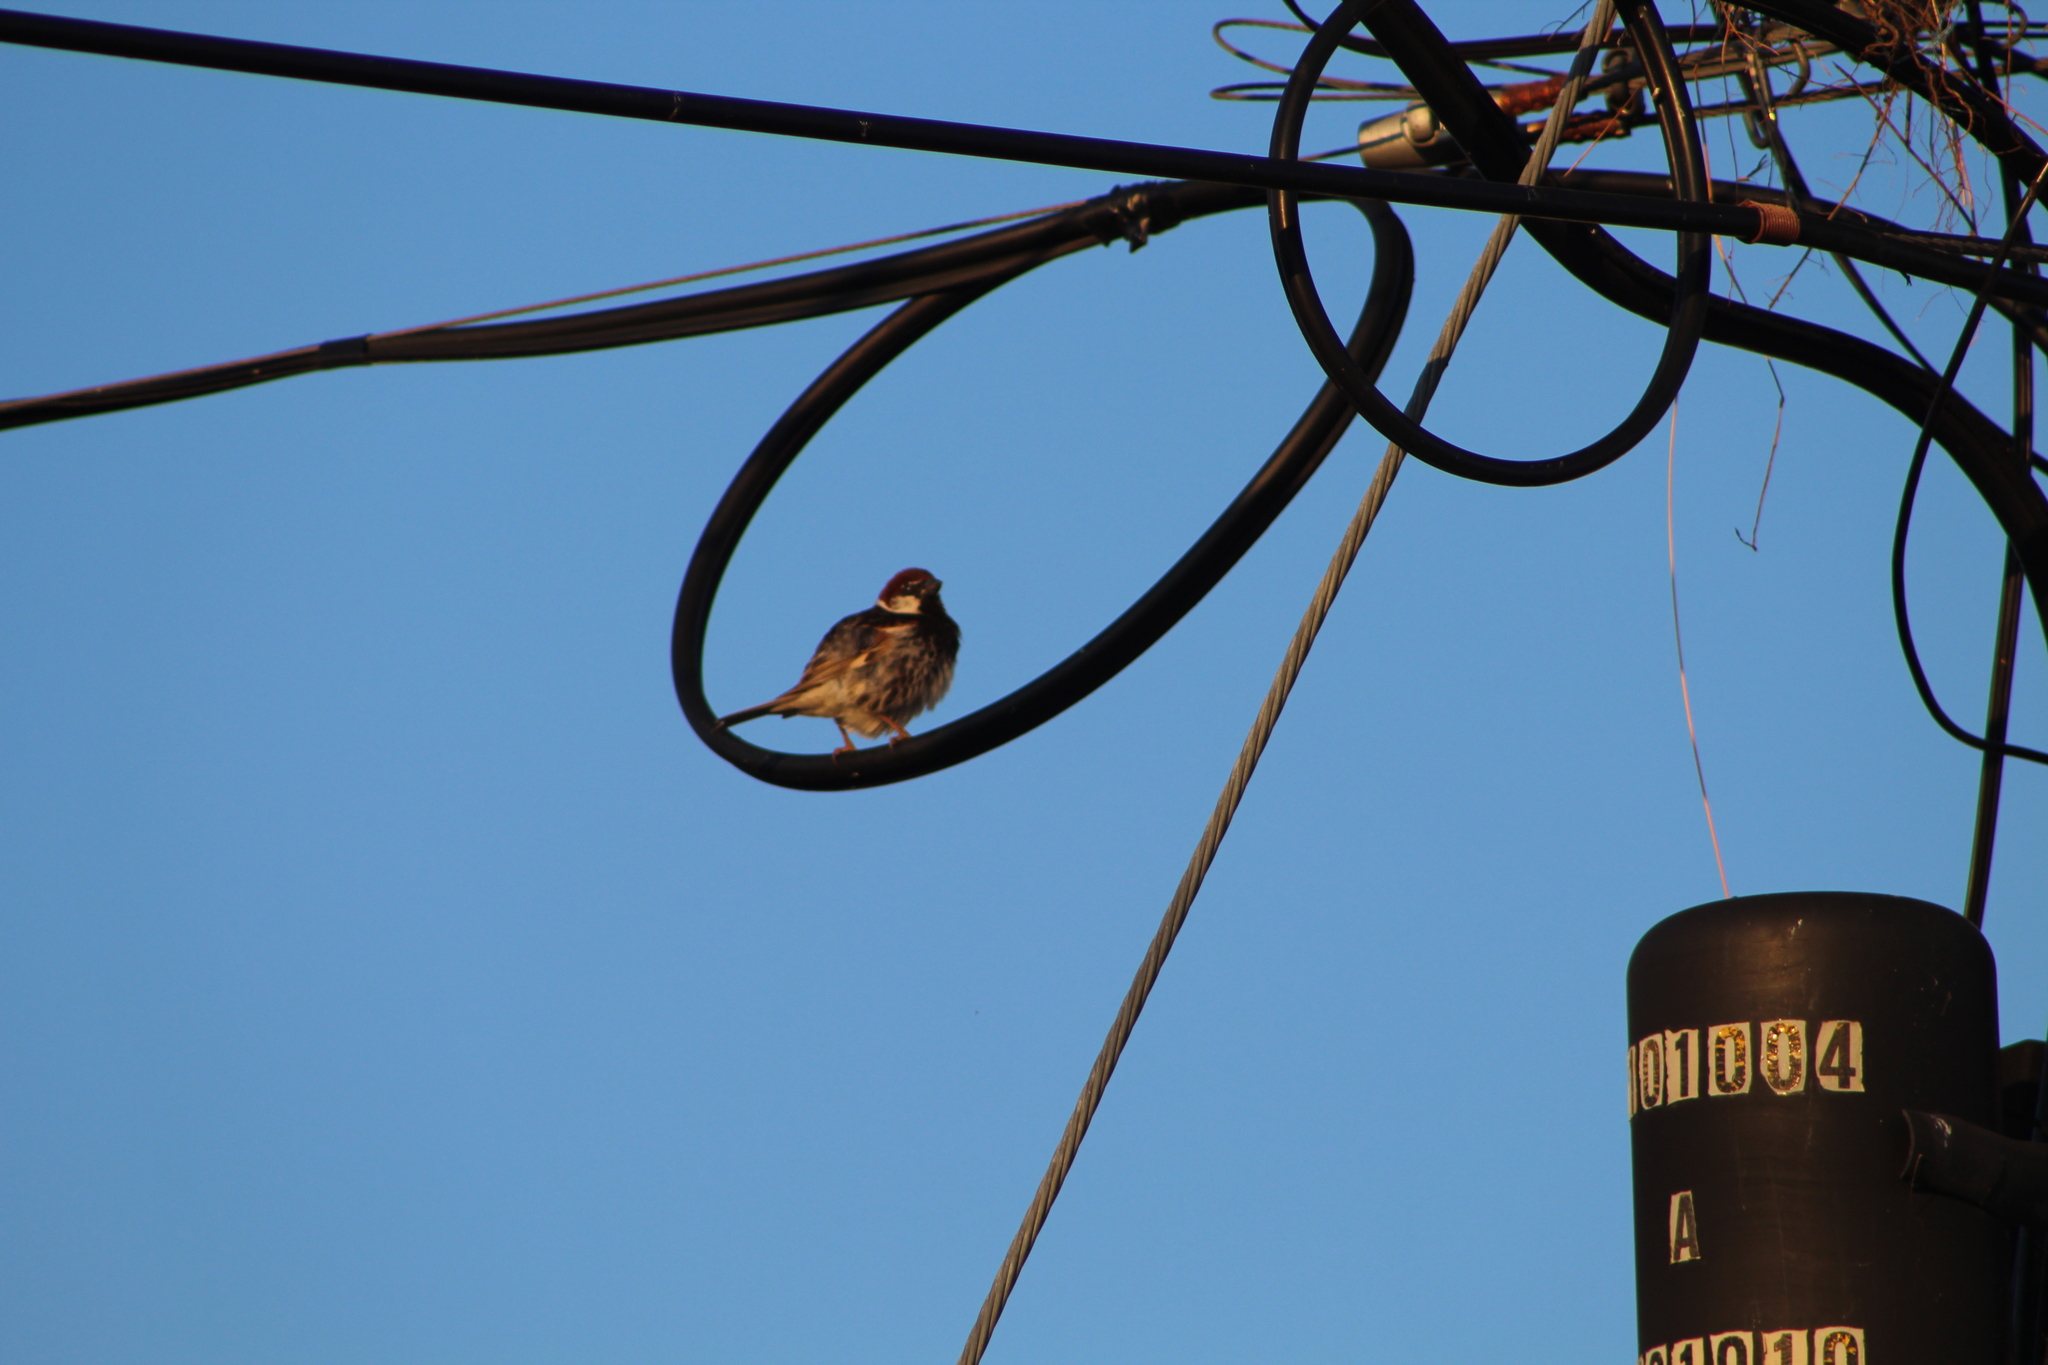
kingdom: Animalia
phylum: Chordata
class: Aves
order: Passeriformes
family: Passeridae
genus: Passer
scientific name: Passer hispaniolensis
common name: Spanish sparrow
